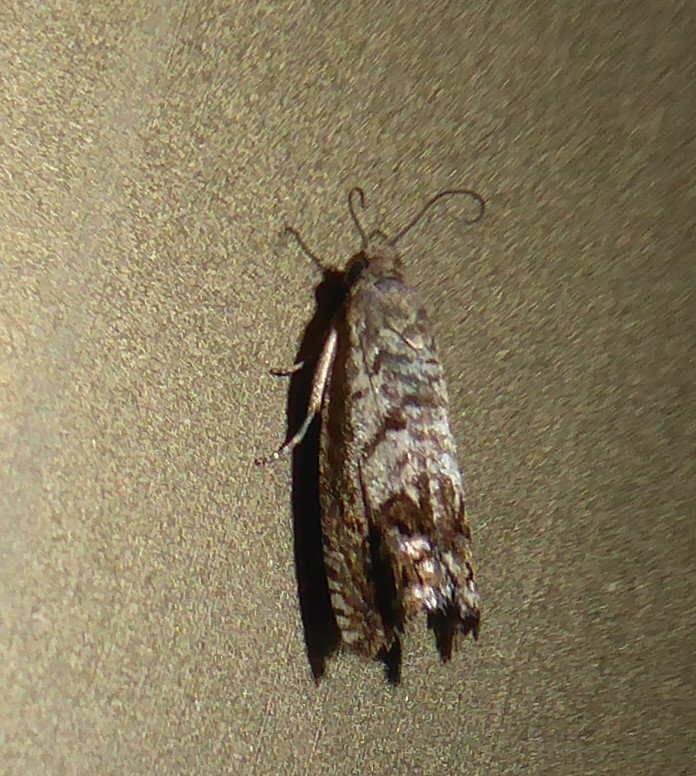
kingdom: Animalia
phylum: Arthropoda
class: Insecta
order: Lepidoptera
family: Tortricidae
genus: Cydia
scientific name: Cydia succedana
